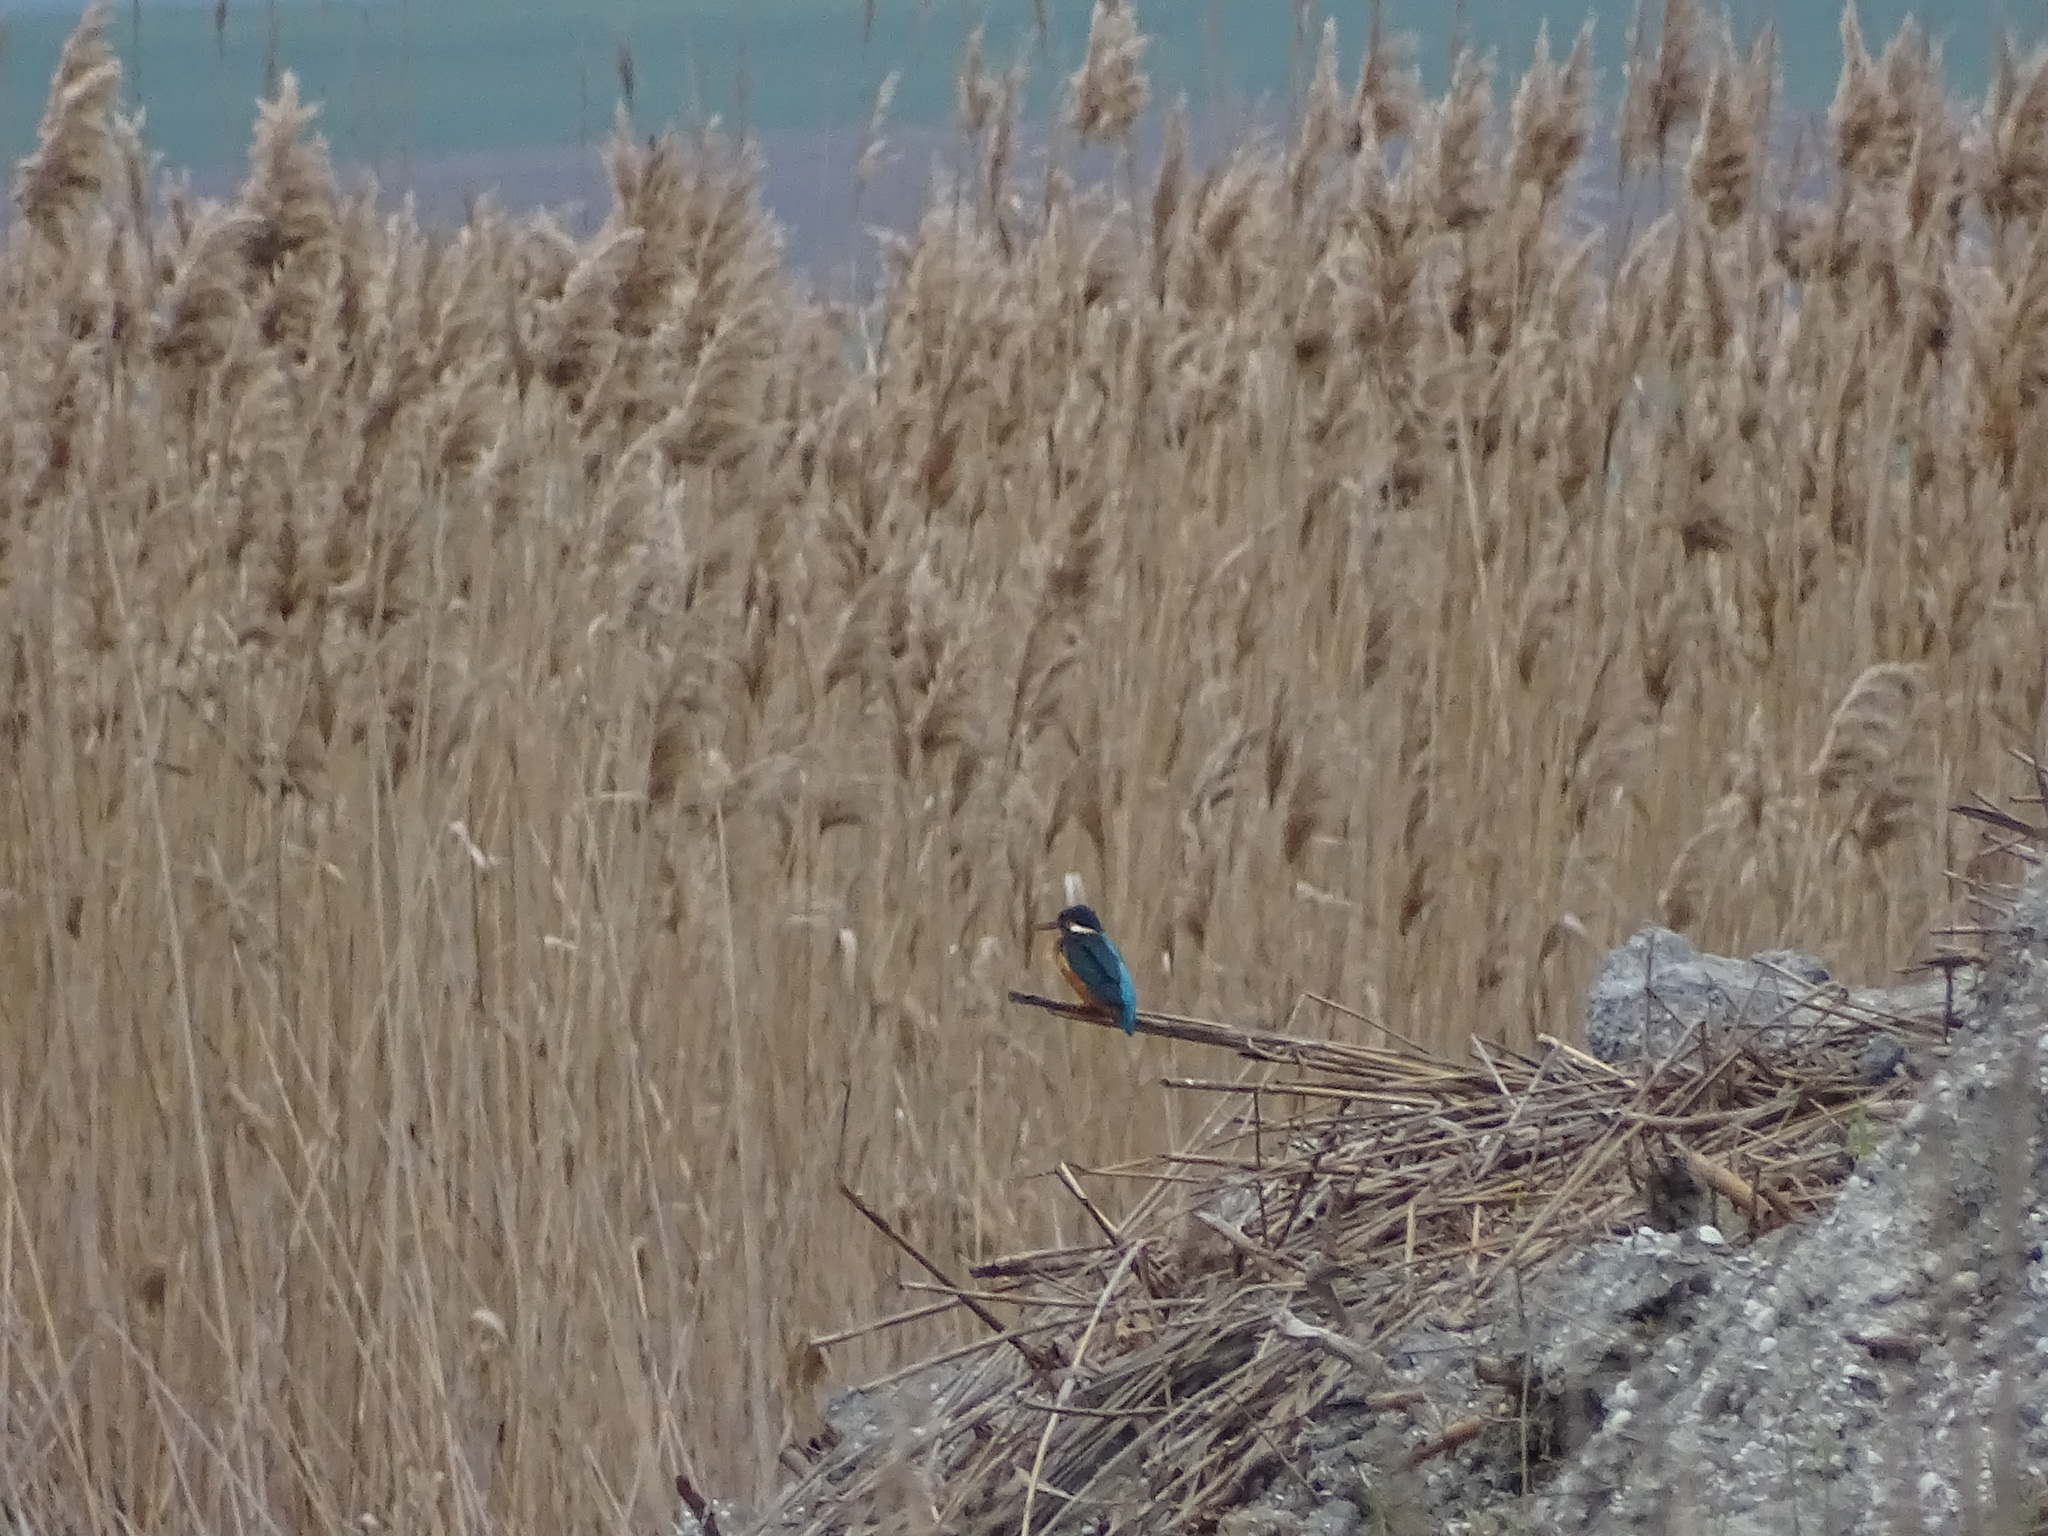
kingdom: Animalia
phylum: Chordata
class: Aves
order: Coraciiformes
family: Alcedinidae
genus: Alcedo
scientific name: Alcedo atthis
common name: Common kingfisher
